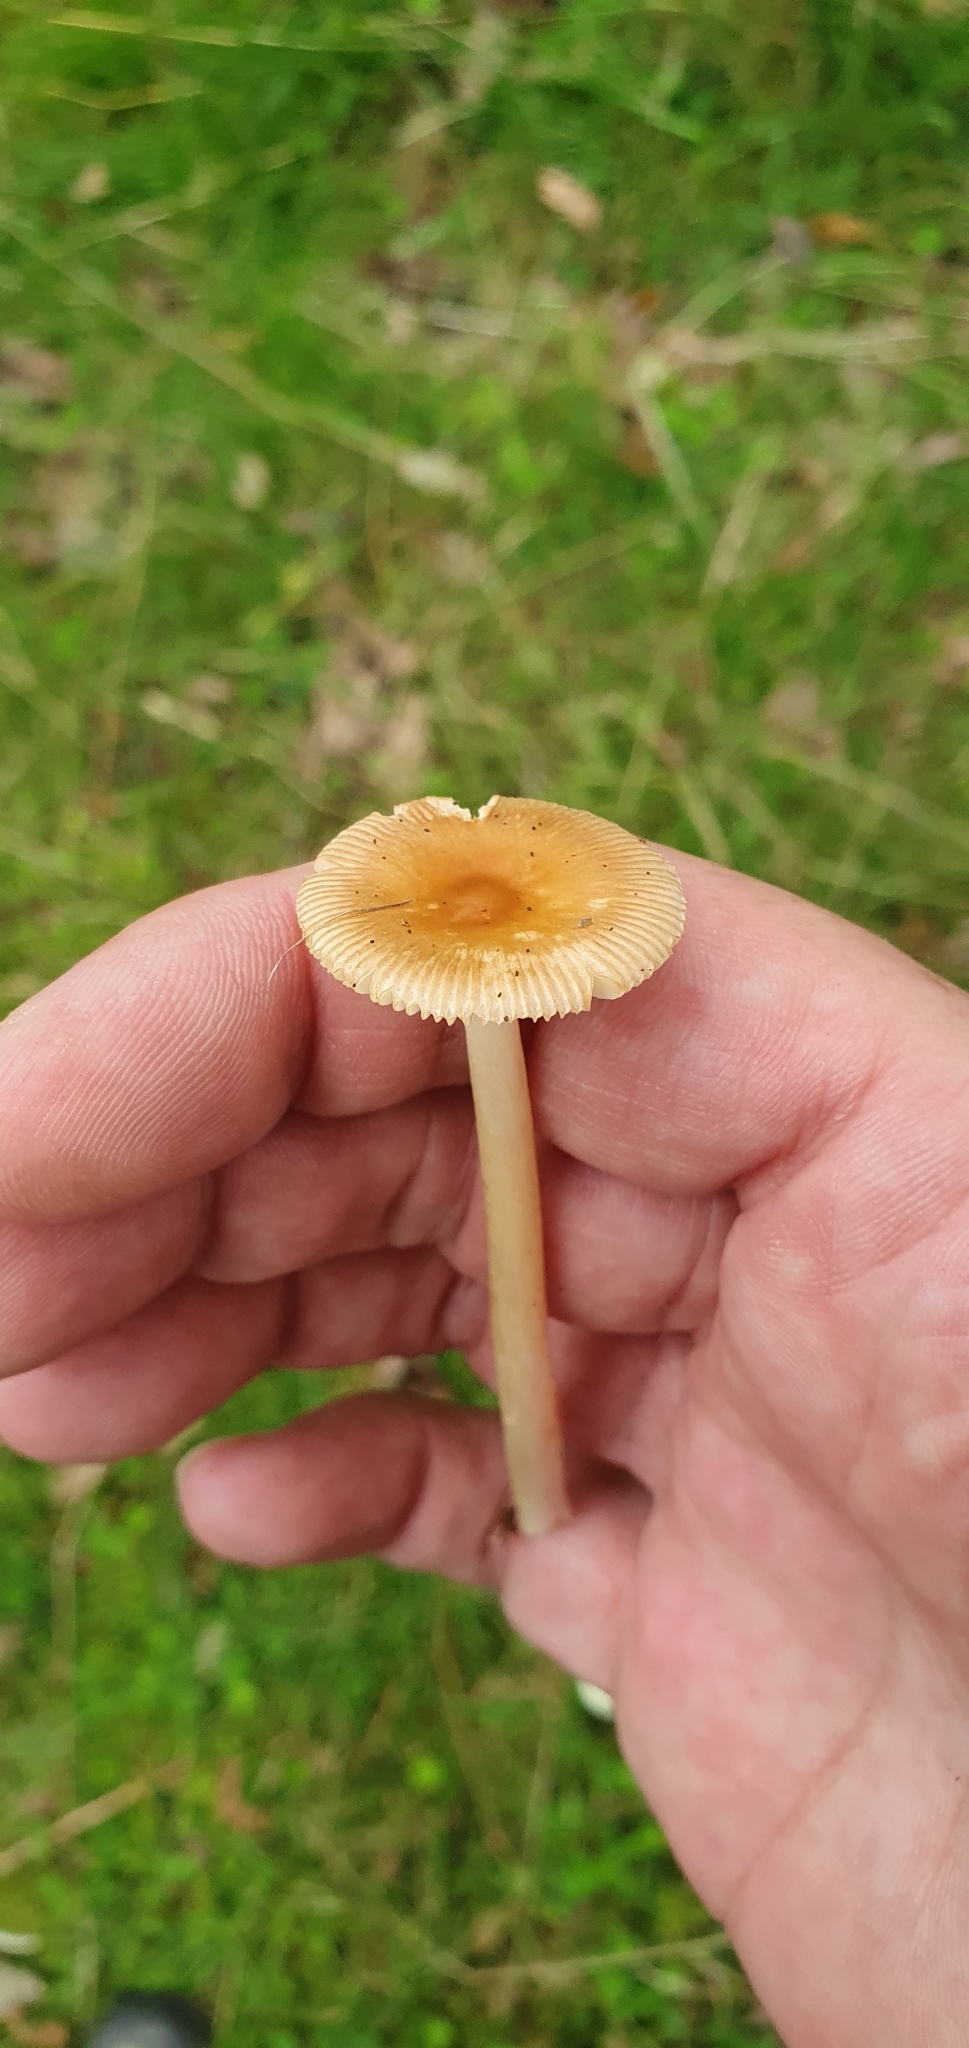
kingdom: Fungi
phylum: Basidiomycota
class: Agaricomycetes
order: Agaricales
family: Amanitaceae
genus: Amanita
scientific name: Amanita fulva
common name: Tawny grisette
